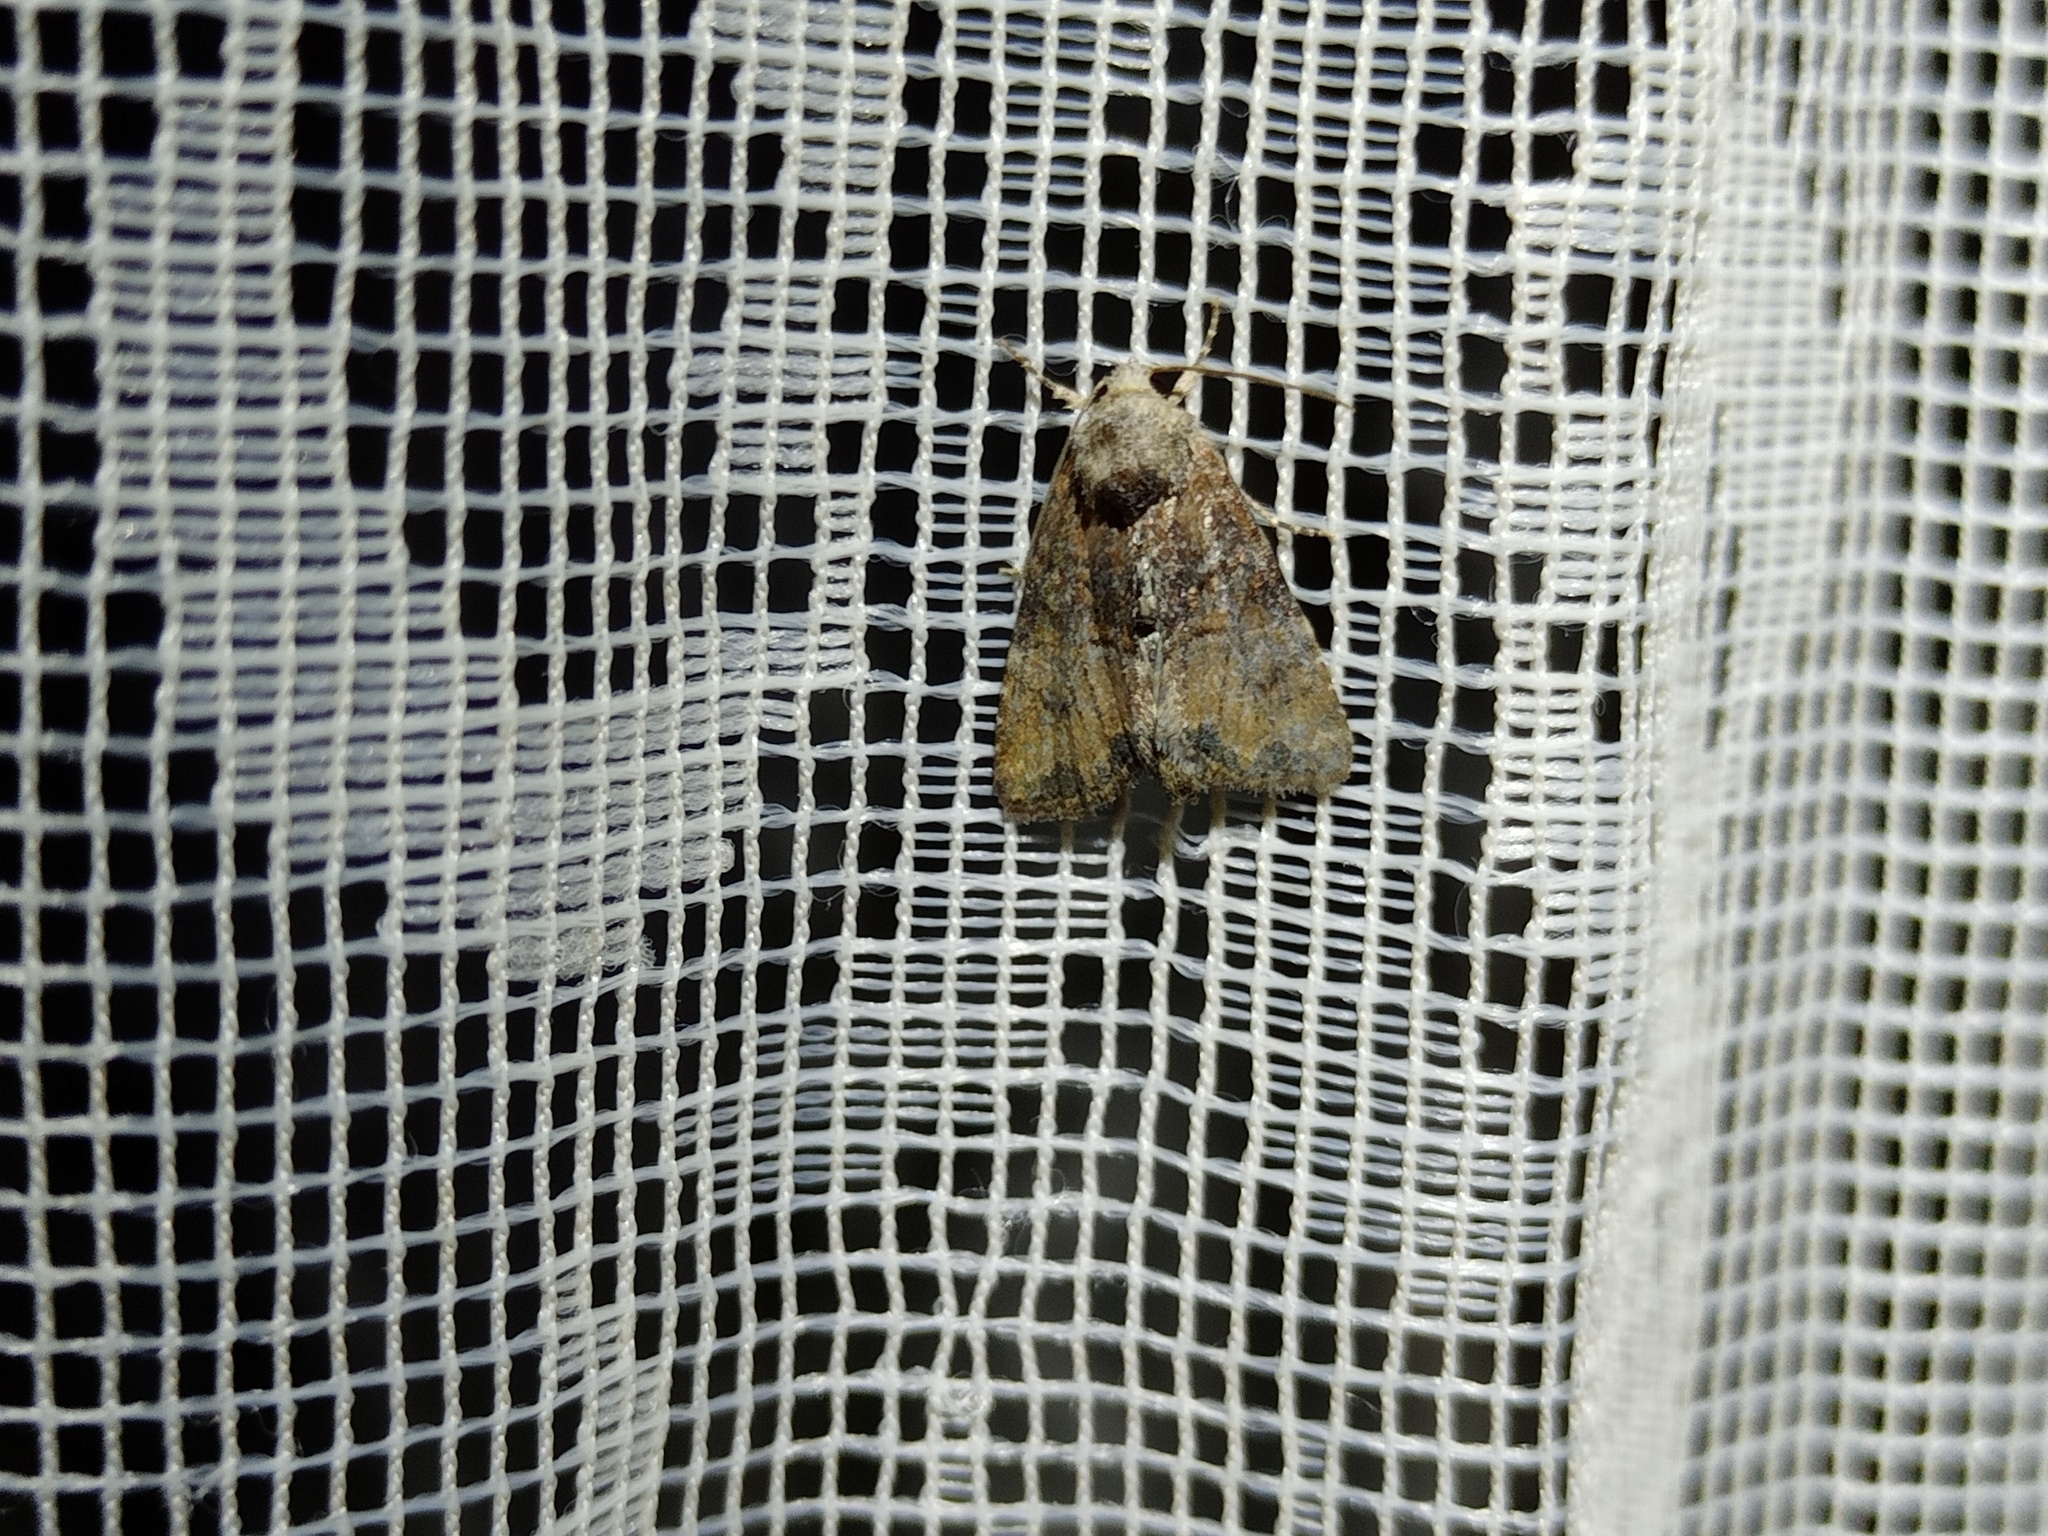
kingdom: Animalia
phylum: Arthropoda
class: Insecta
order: Lepidoptera
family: Noctuidae
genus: Mesoligia
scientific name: Mesoligia furuncula
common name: Cloaked minor
